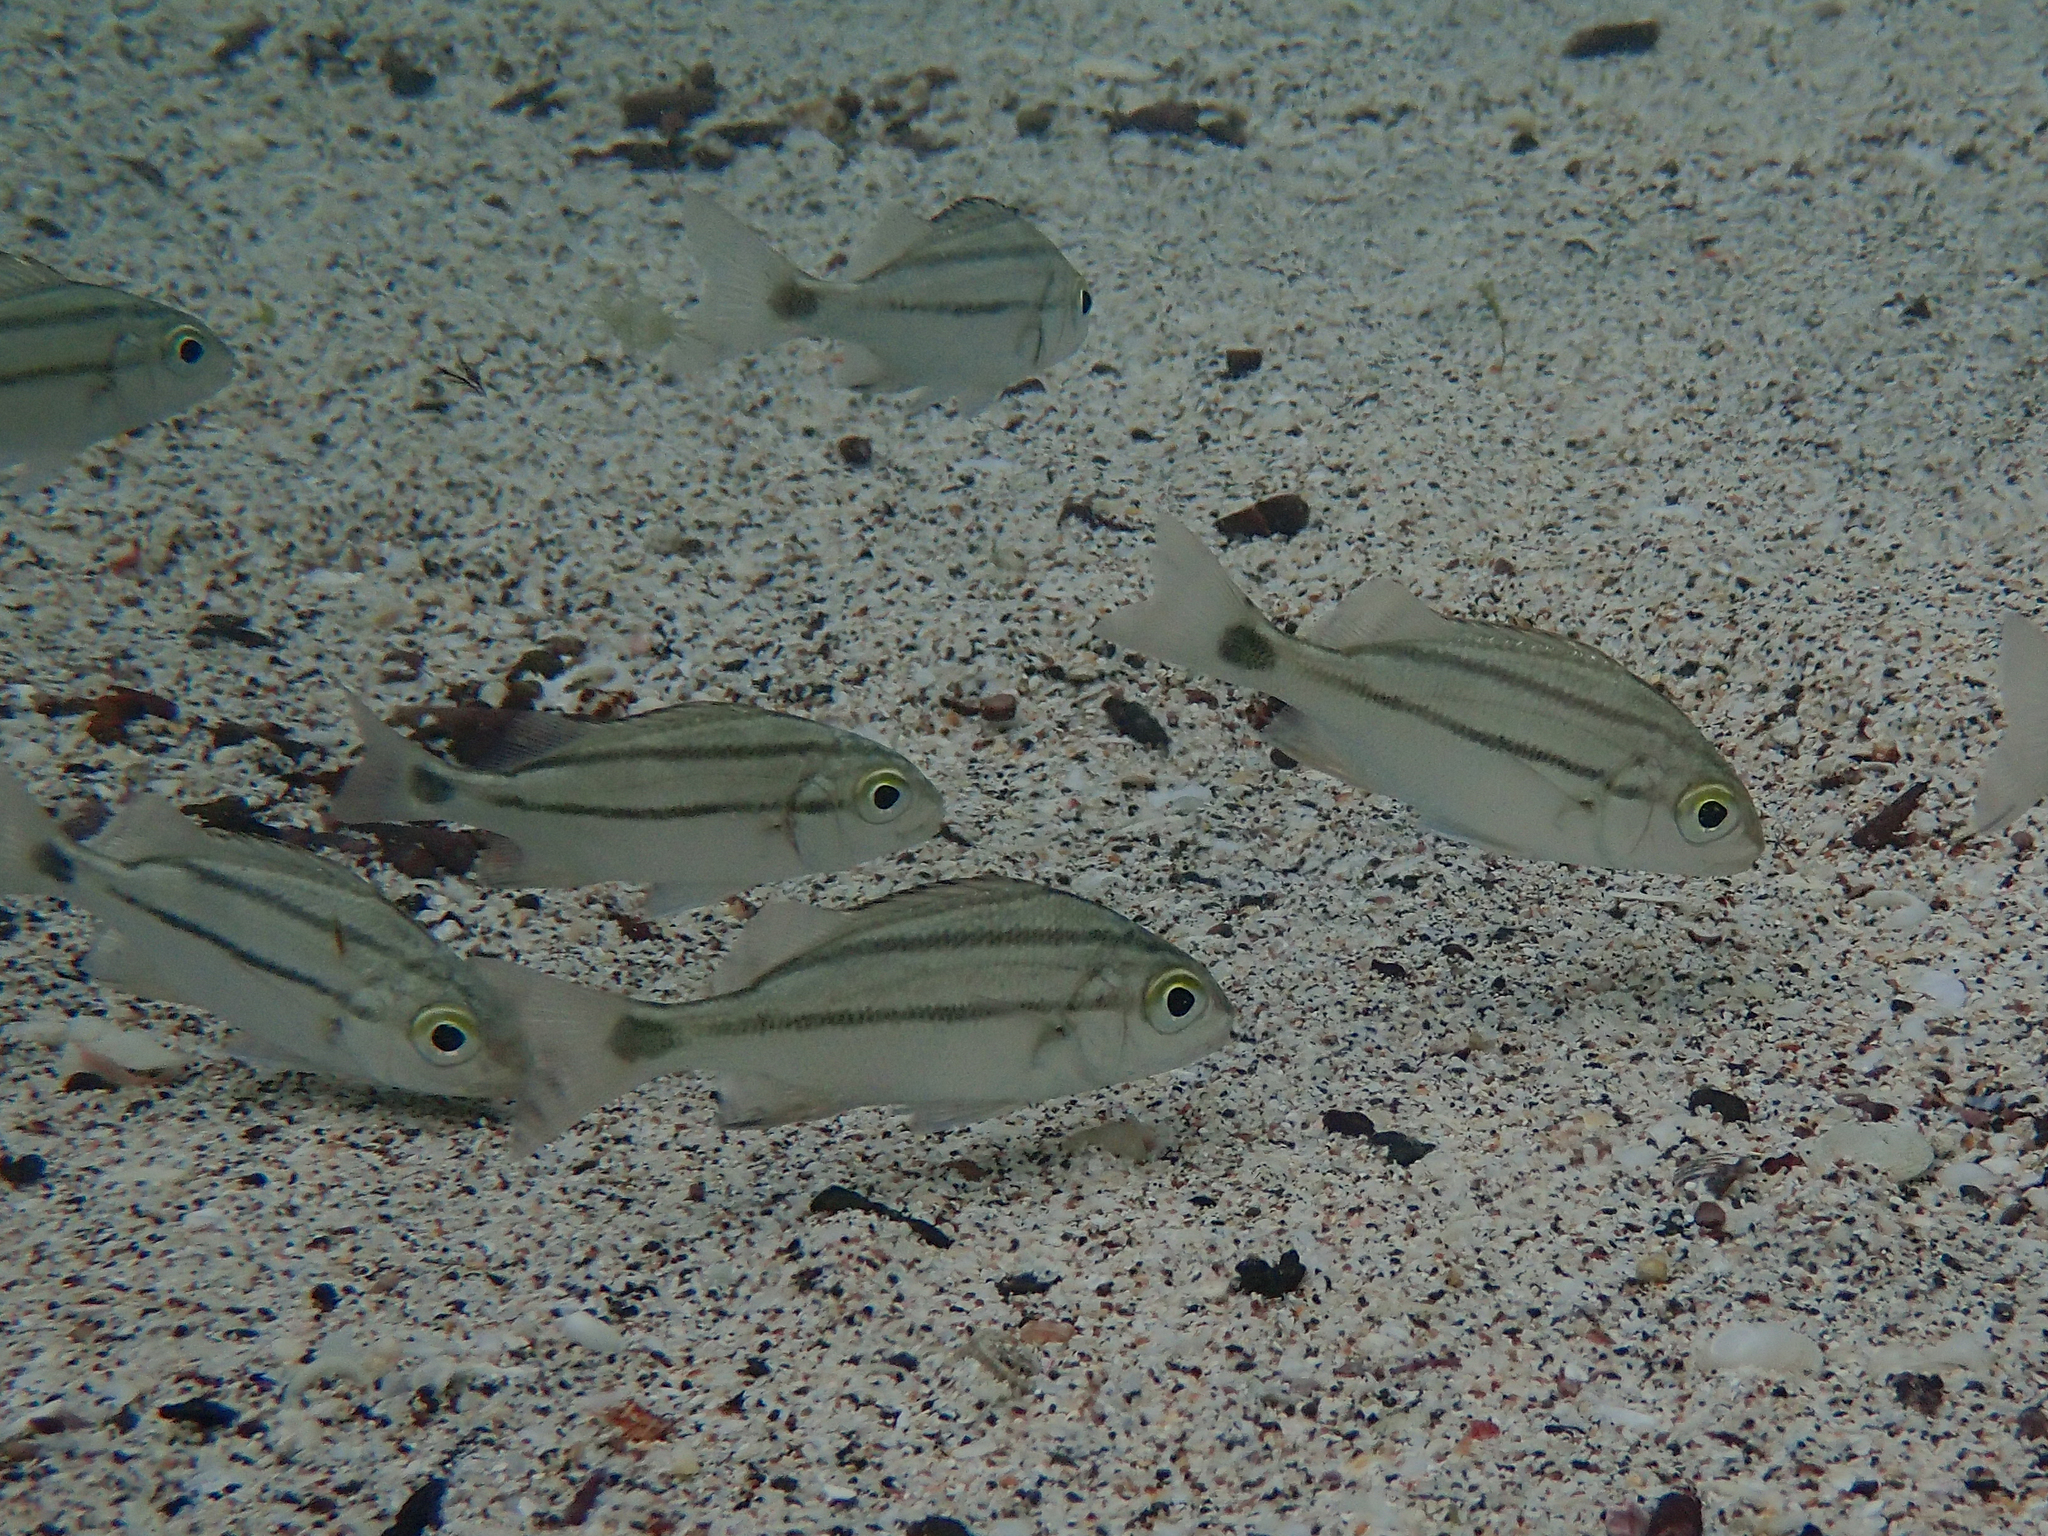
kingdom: Animalia
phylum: Chordata
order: Perciformes
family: Haemulidae
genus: Haemulon
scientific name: Haemulon scudderii
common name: Grey grunt
